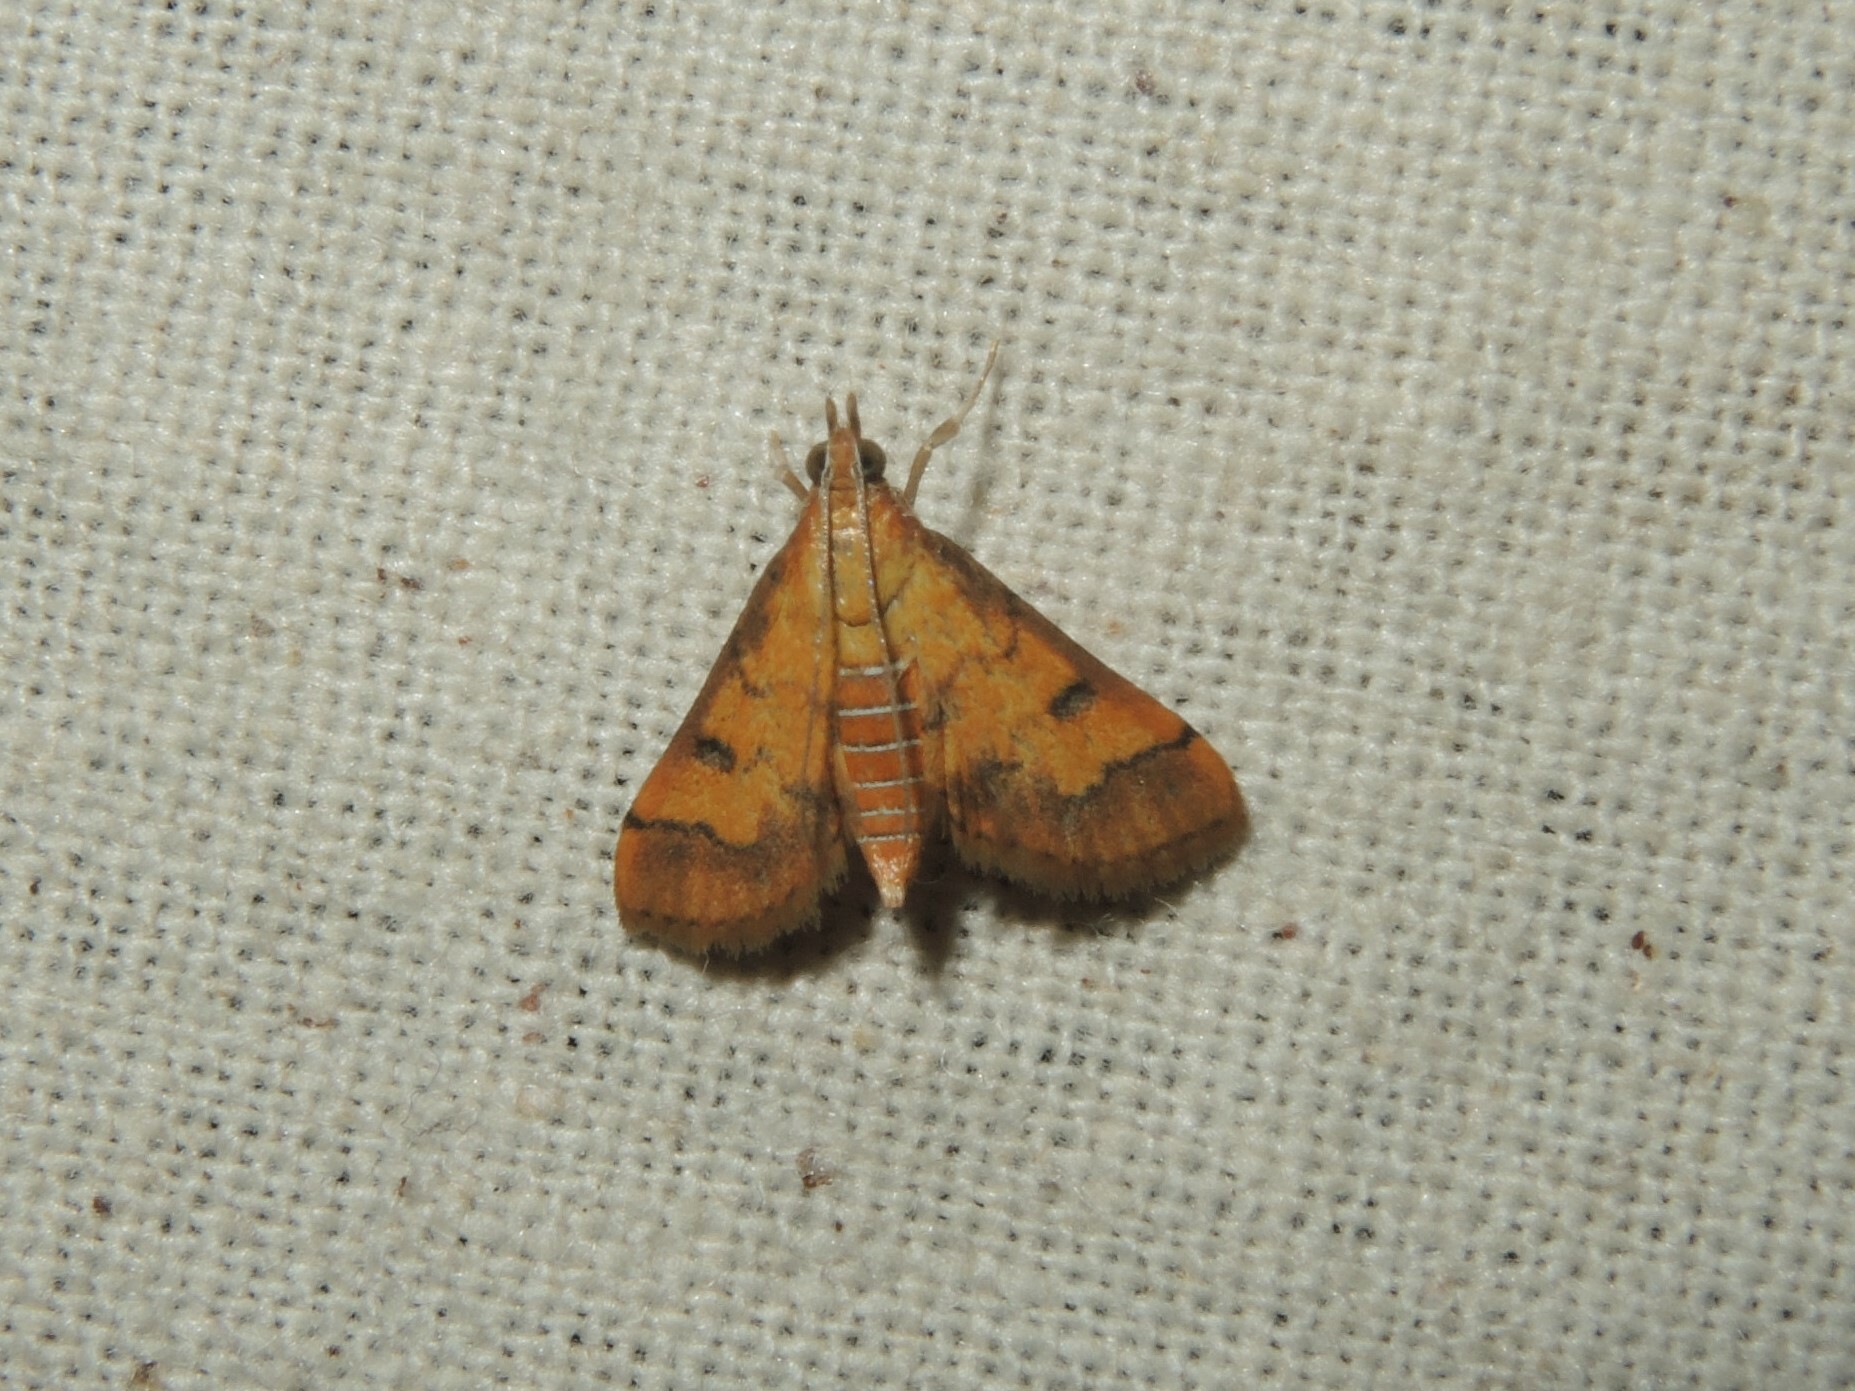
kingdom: Animalia
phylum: Arthropoda
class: Insecta
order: Lepidoptera
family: Crambidae
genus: Ischnurges
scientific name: Ischnurges luteomarginalis
